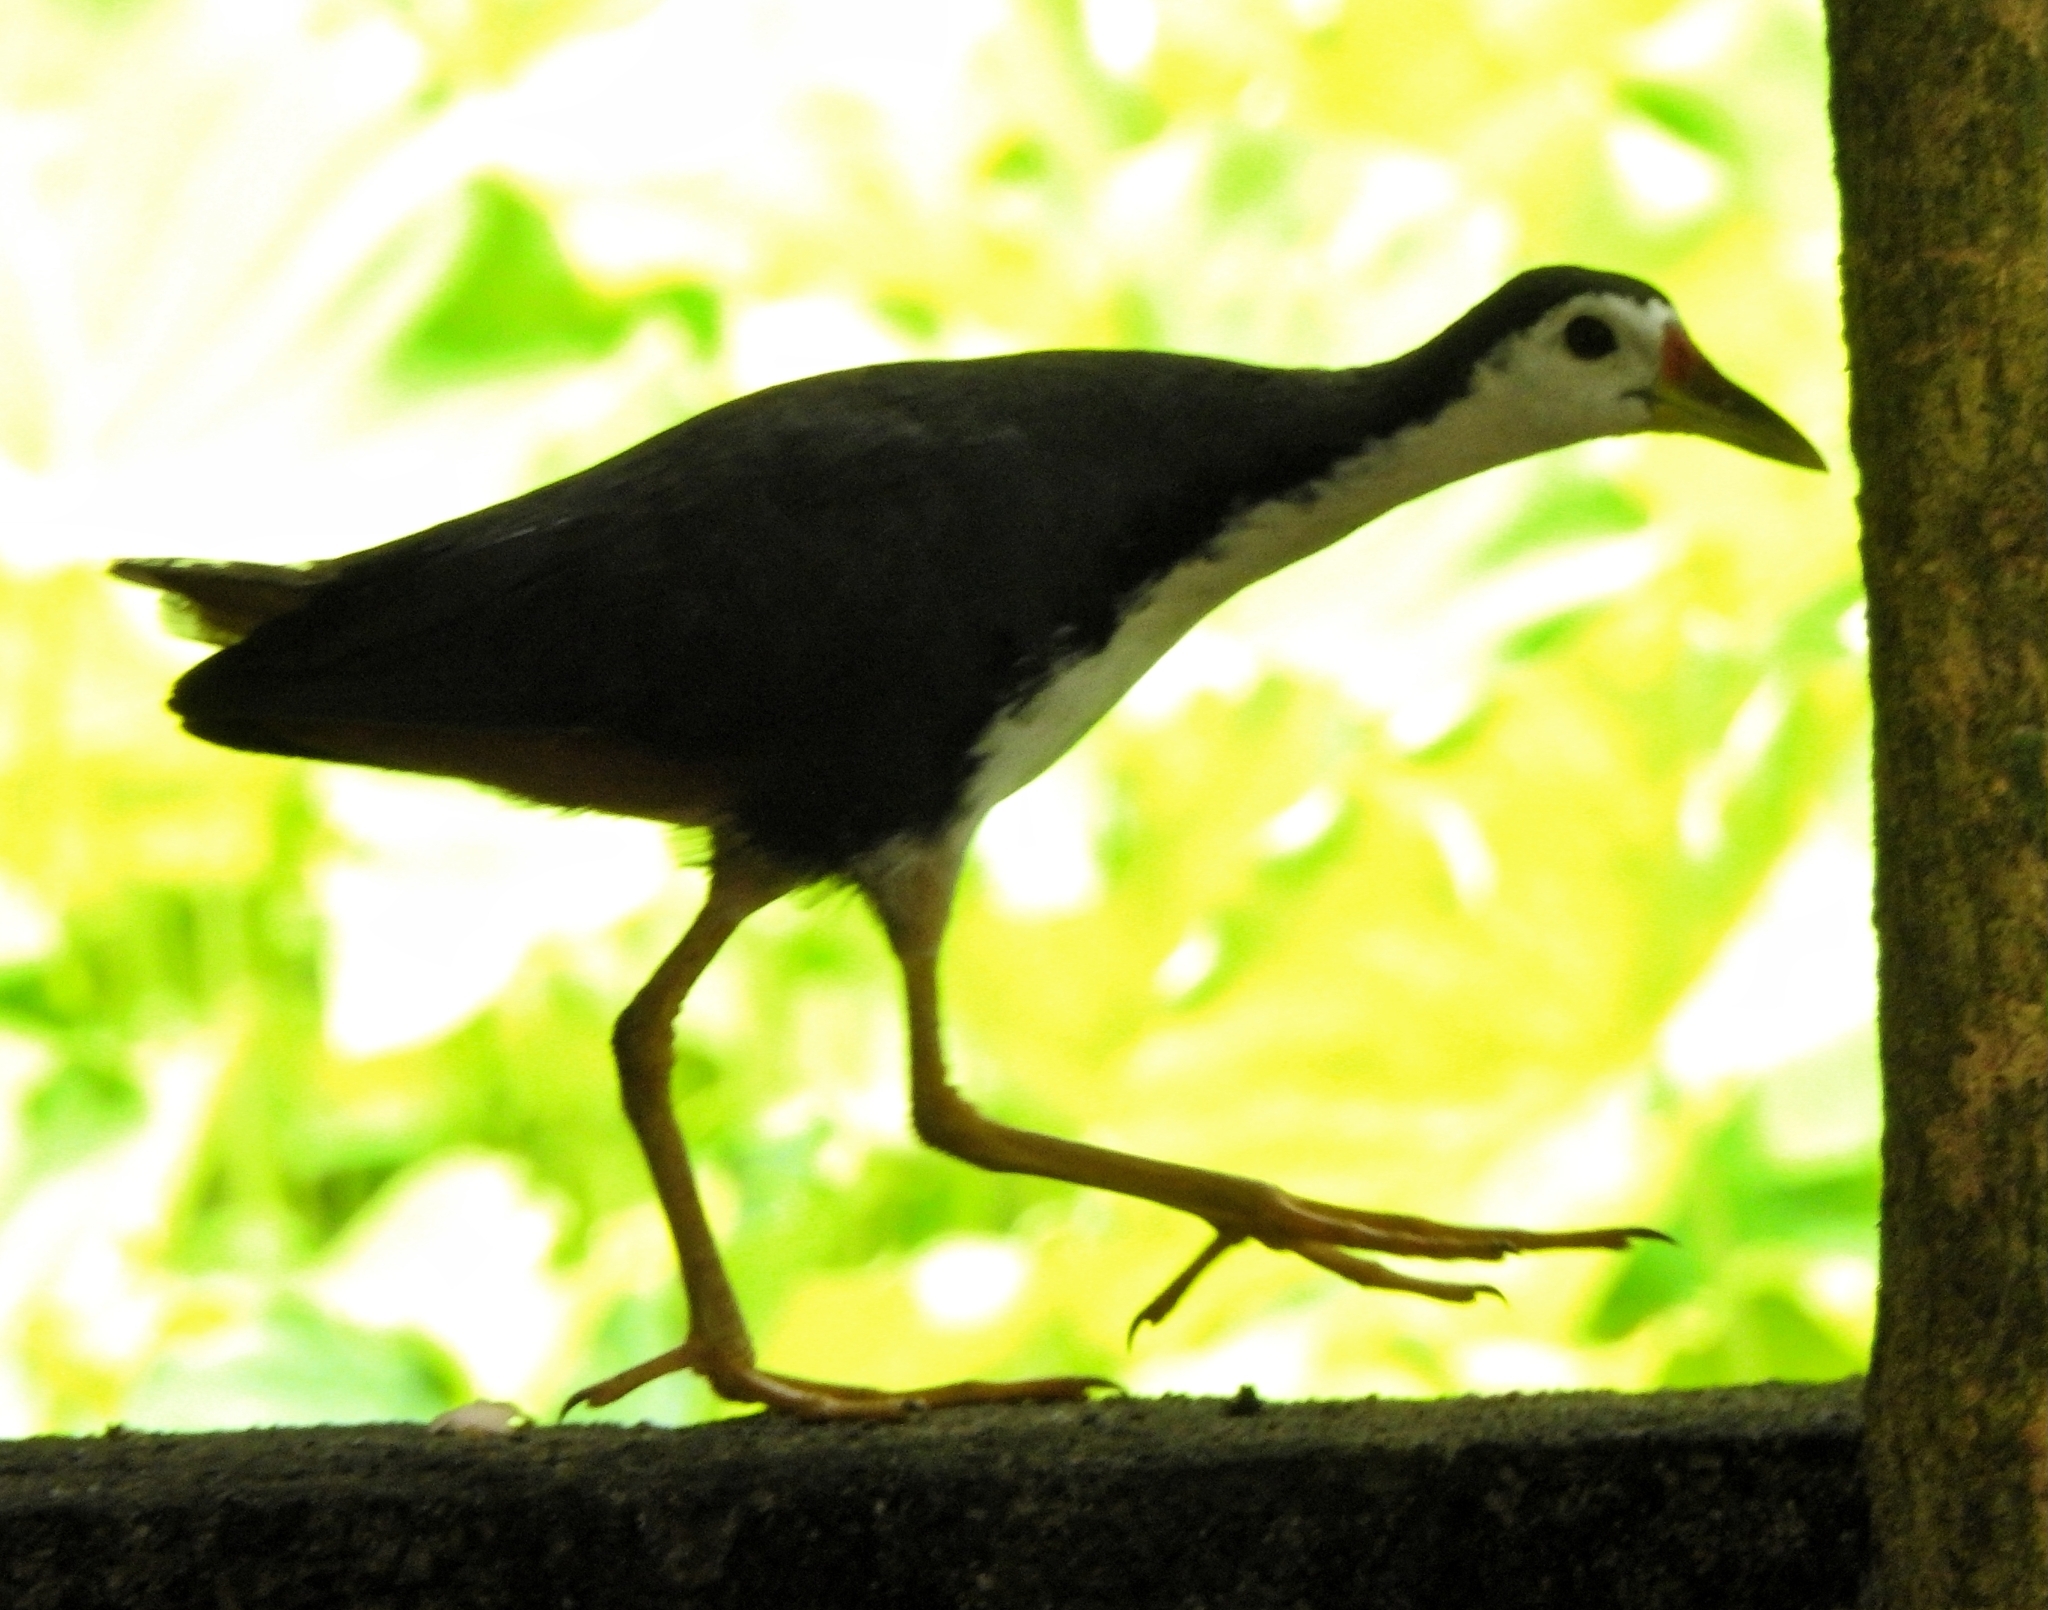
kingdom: Animalia
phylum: Chordata
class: Aves
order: Gruiformes
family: Rallidae
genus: Amaurornis
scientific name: Amaurornis phoenicurus
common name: White-breasted waterhen
